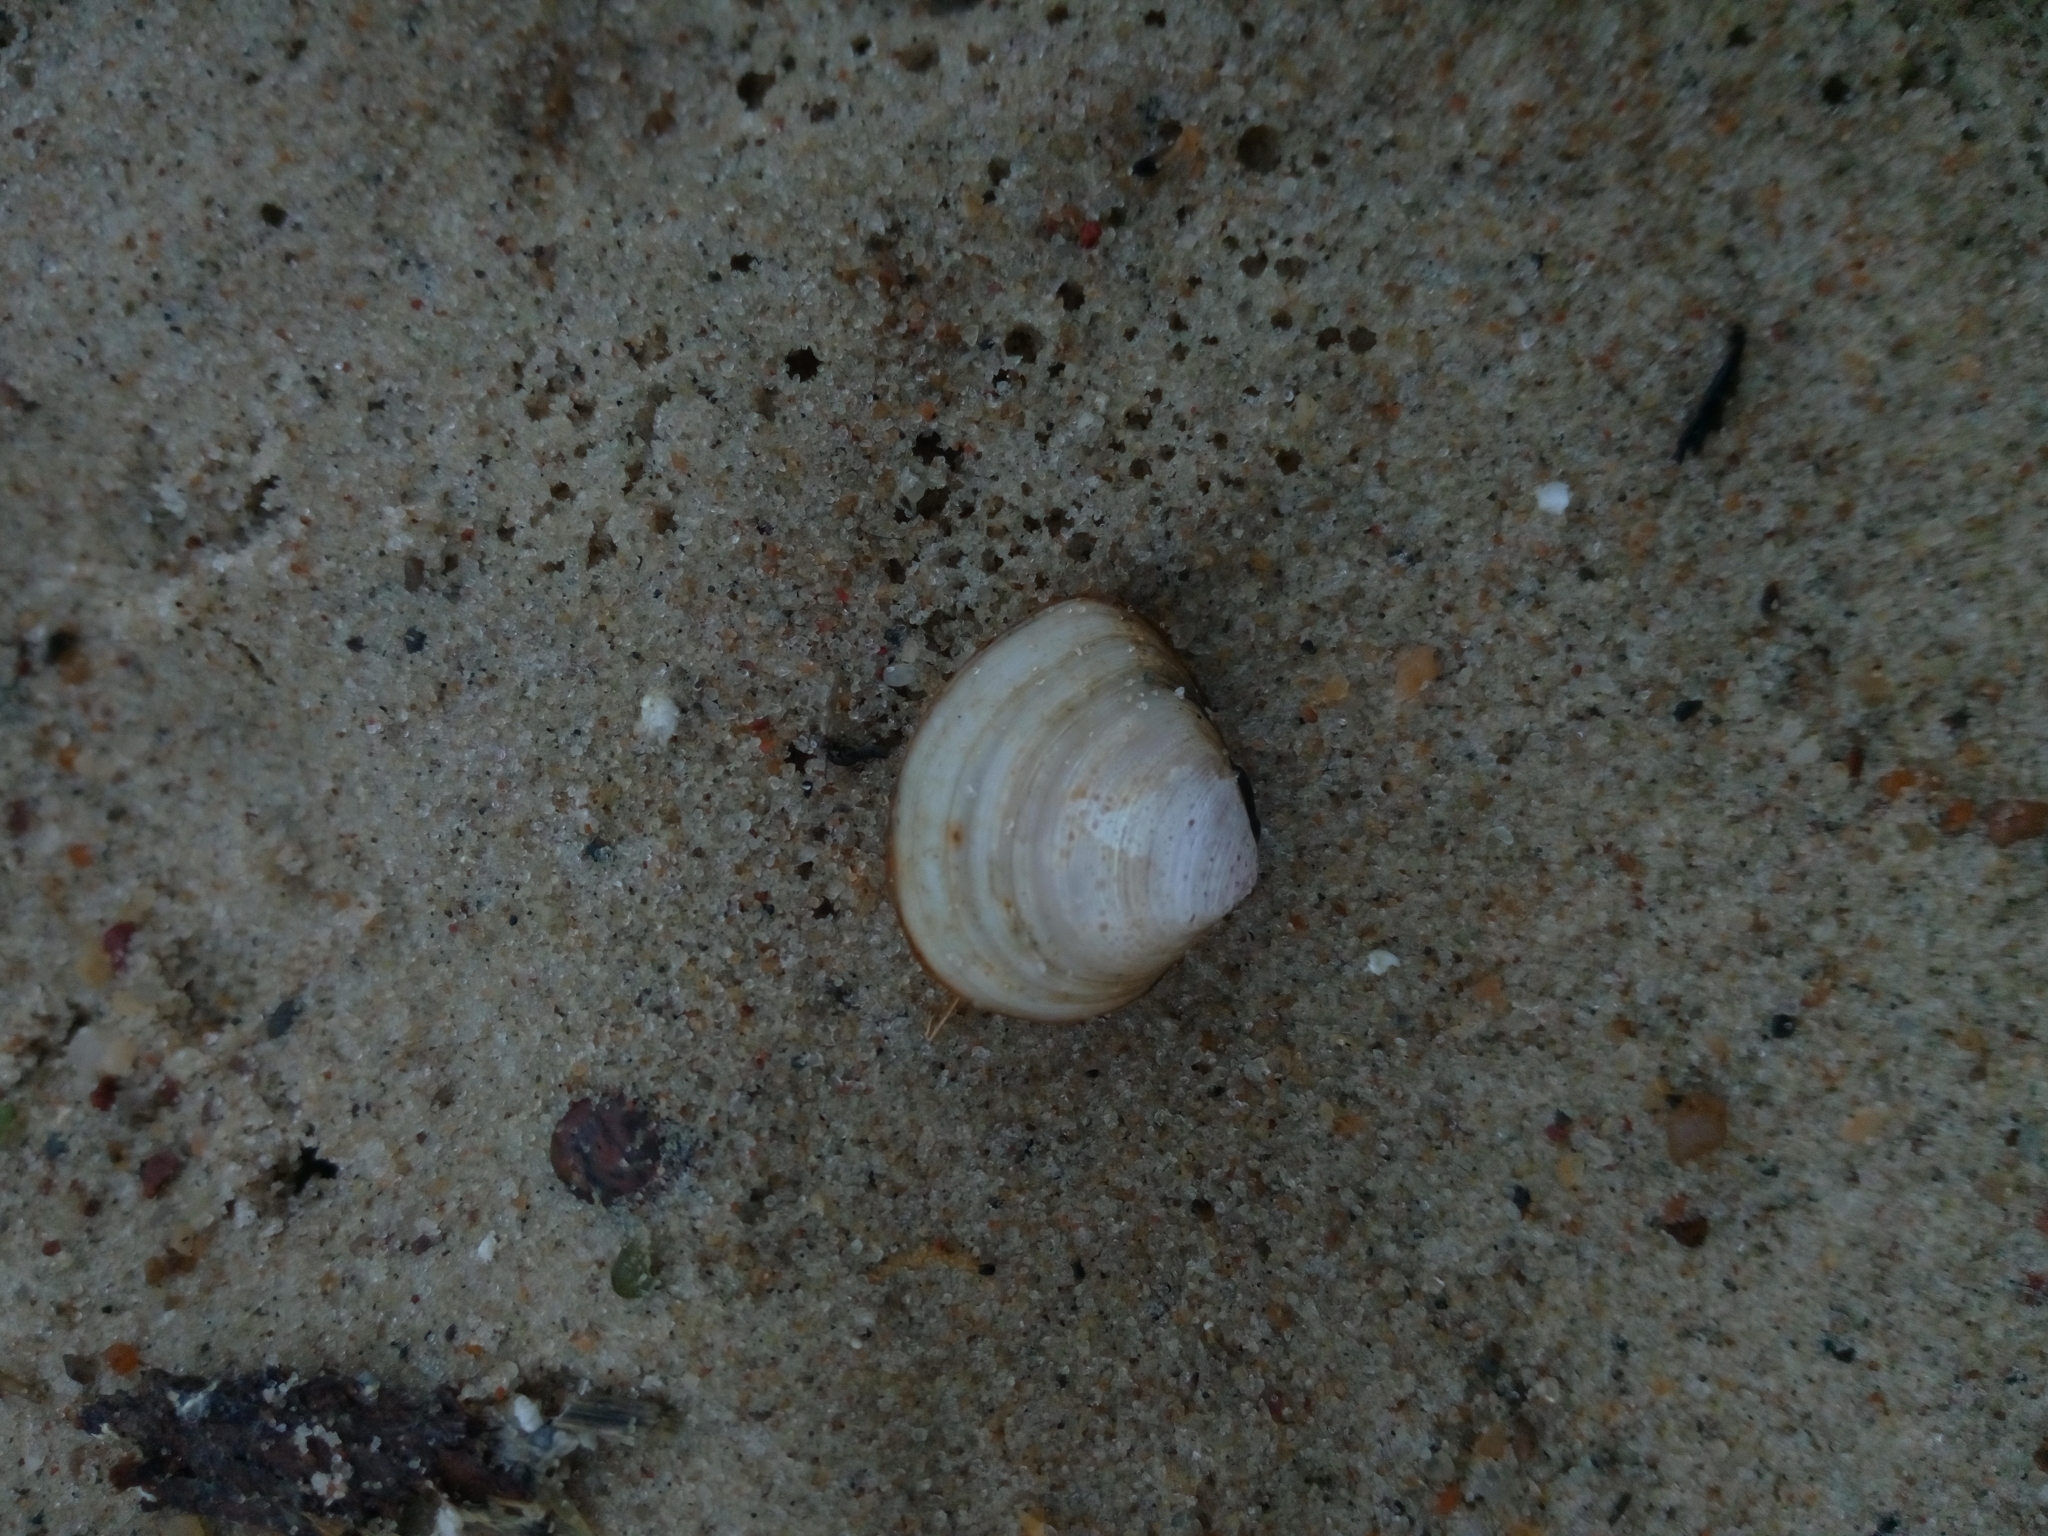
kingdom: Animalia
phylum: Mollusca
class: Bivalvia
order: Cardiida
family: Tellinidae
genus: Macoma
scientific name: Macoma balthica
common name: Baltic tellin
